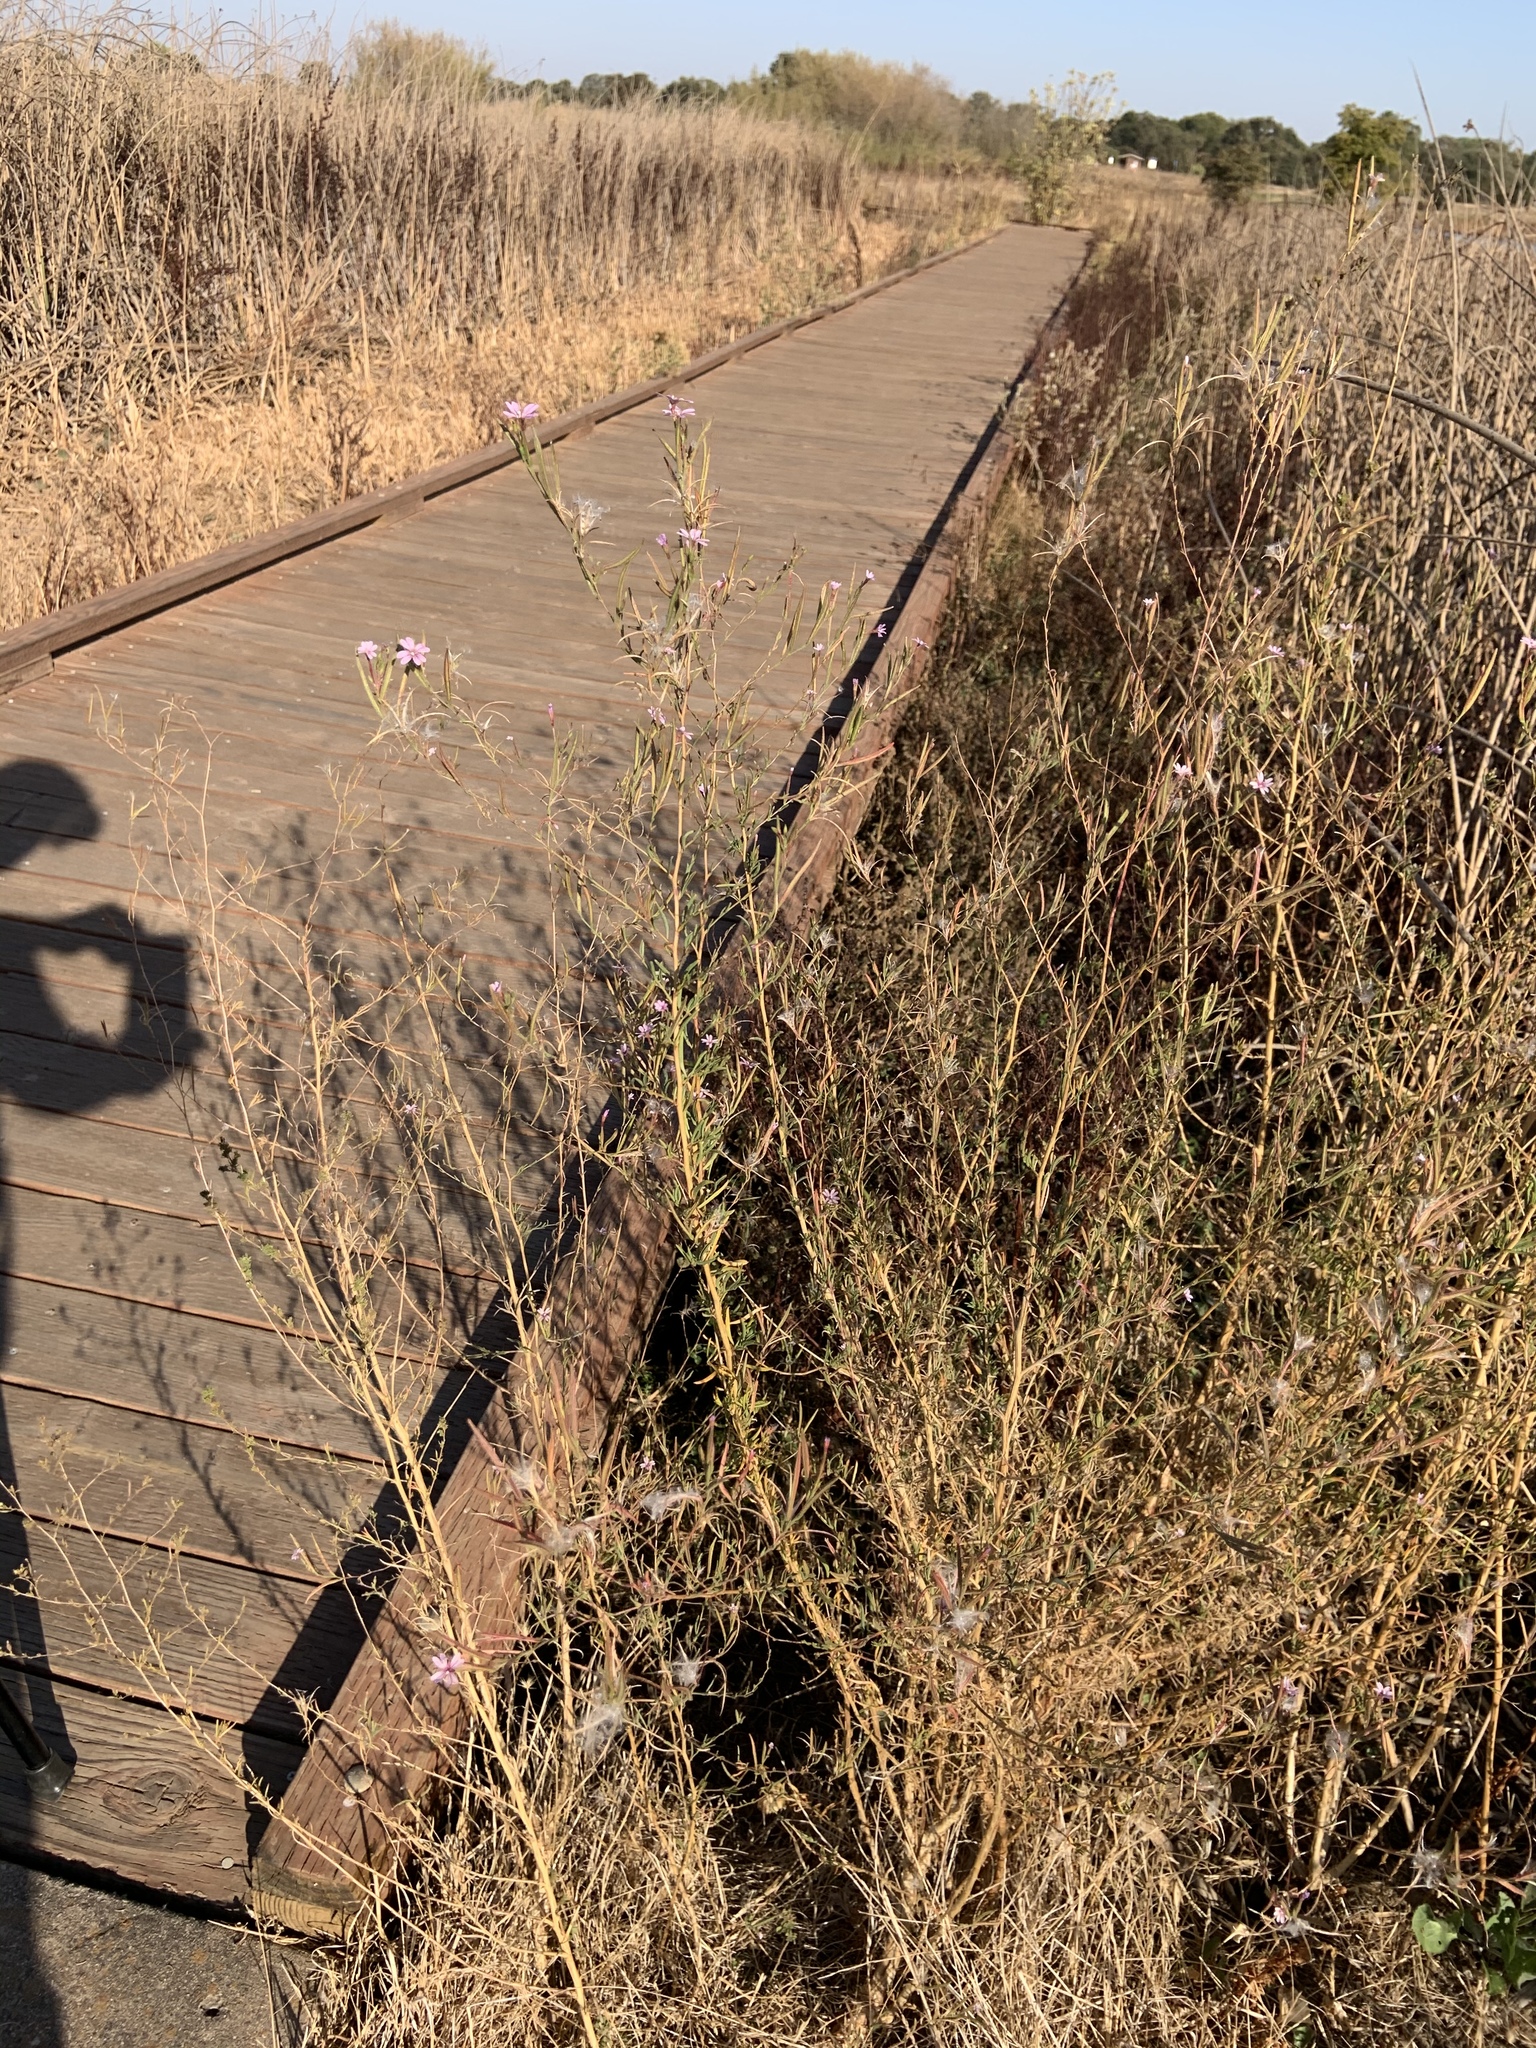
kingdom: Plantae
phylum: Tracheophyta
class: Magnoliopsida
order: Myrtales
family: Onagraceae
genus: Epilobium
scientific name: Epilobium brachycarpum
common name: Annual willowherb
